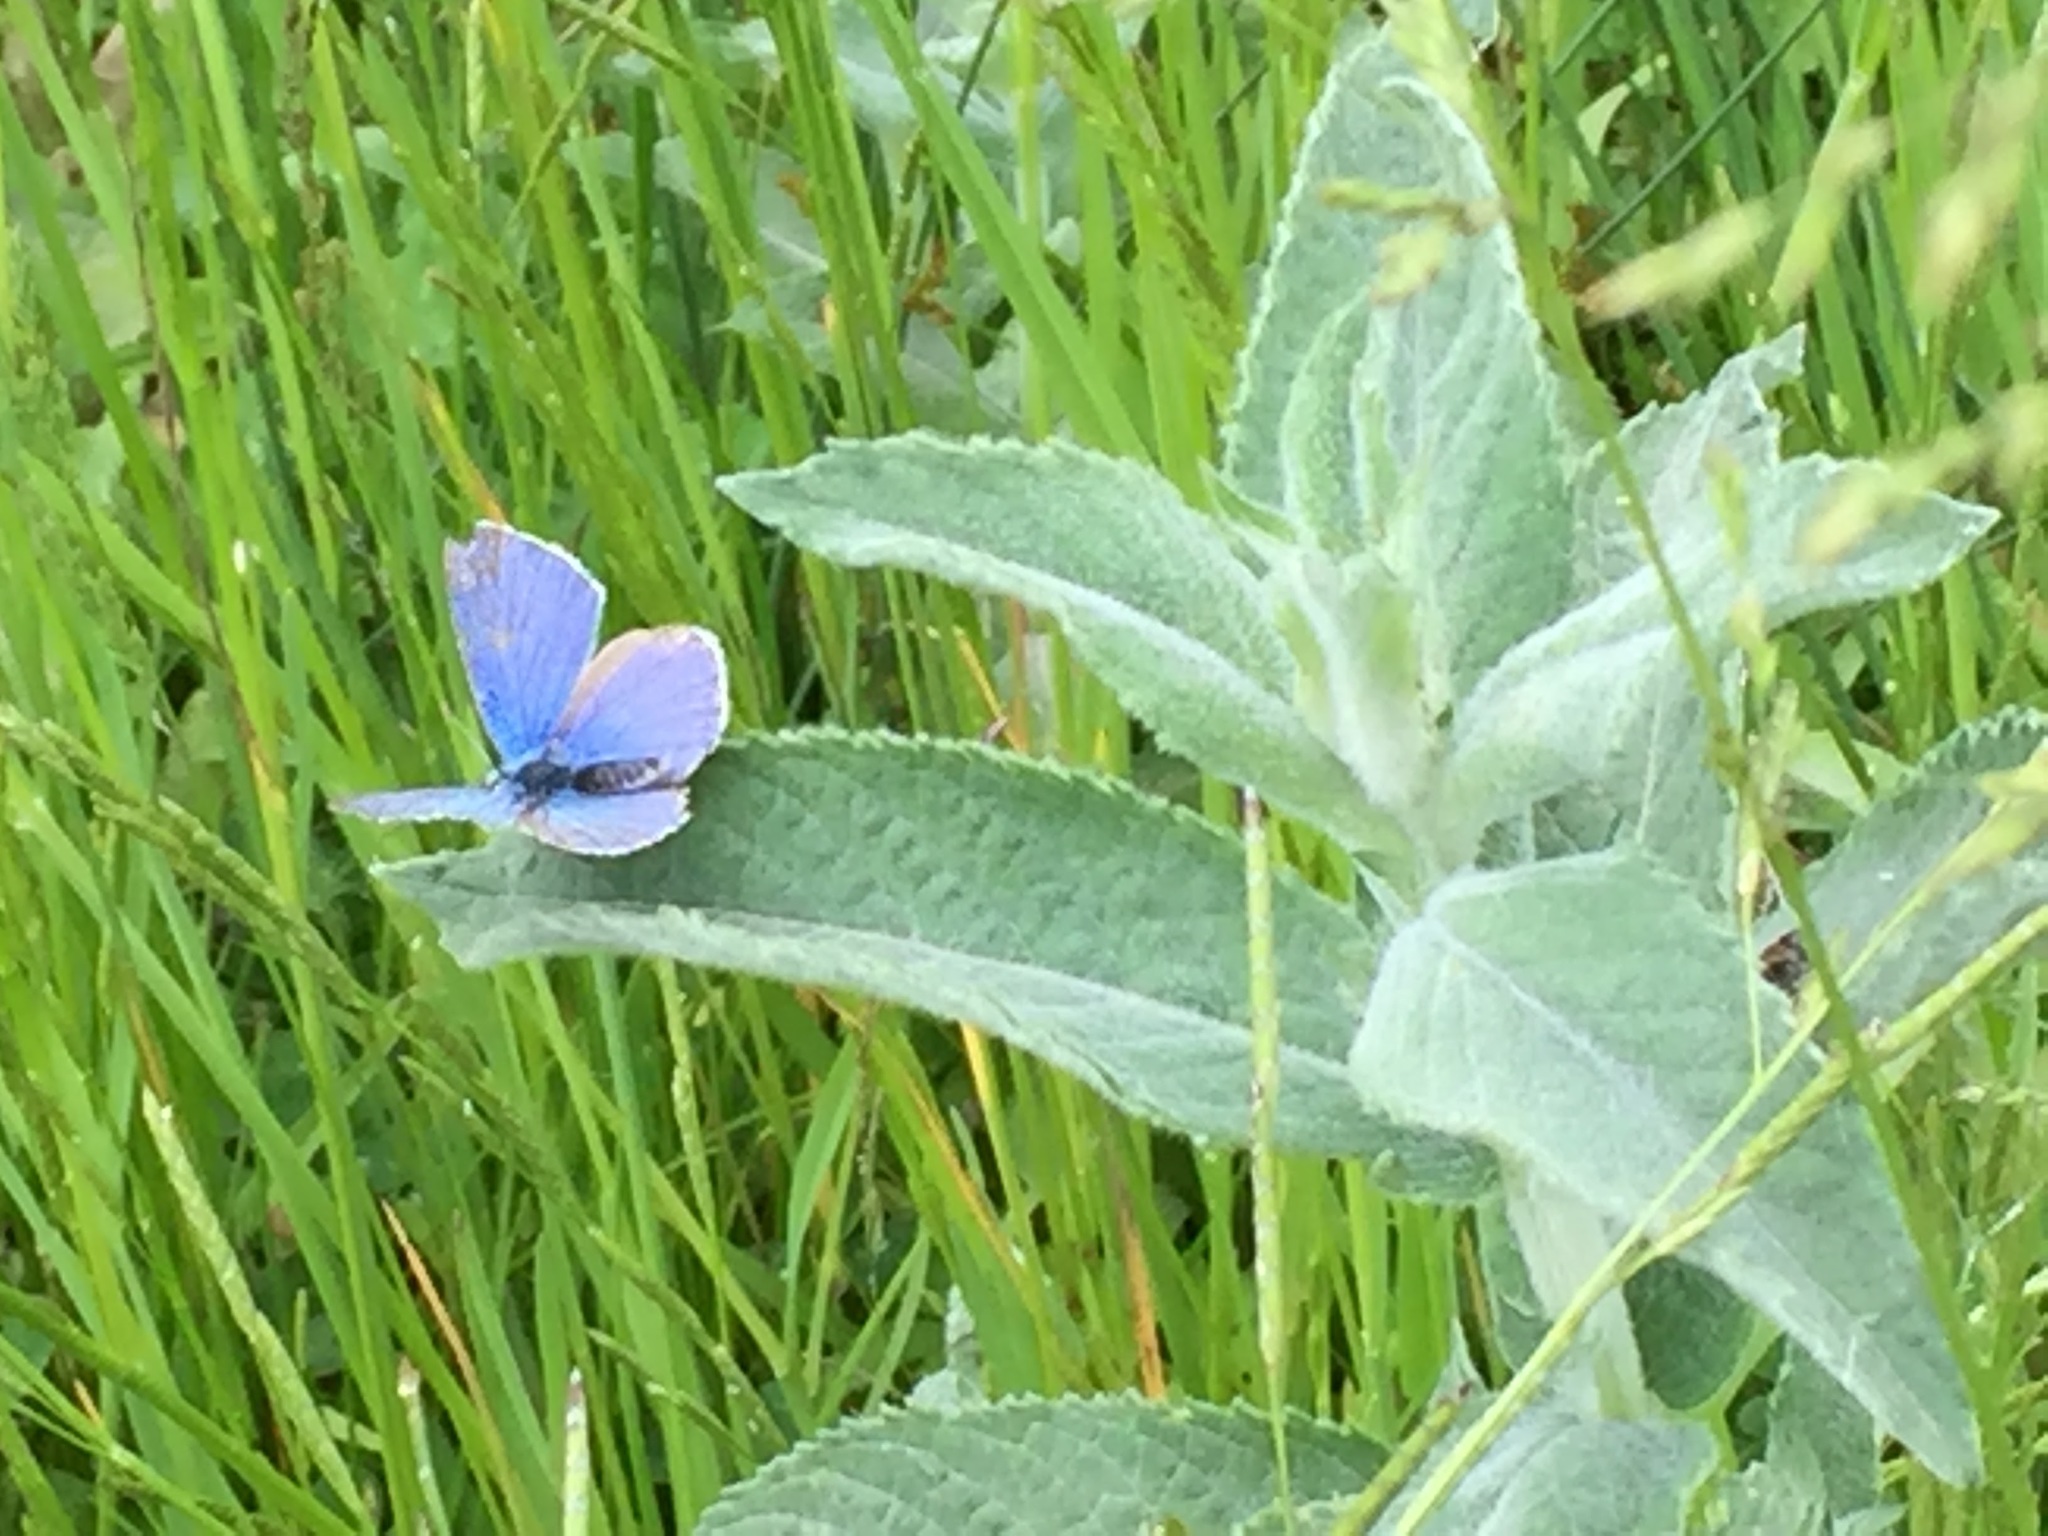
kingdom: Animalia
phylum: Arthropoda
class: Insecta
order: Lepidoptera
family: Lycaenidae
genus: Polyommatus
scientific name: Polyommatus icarus
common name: Common blue
